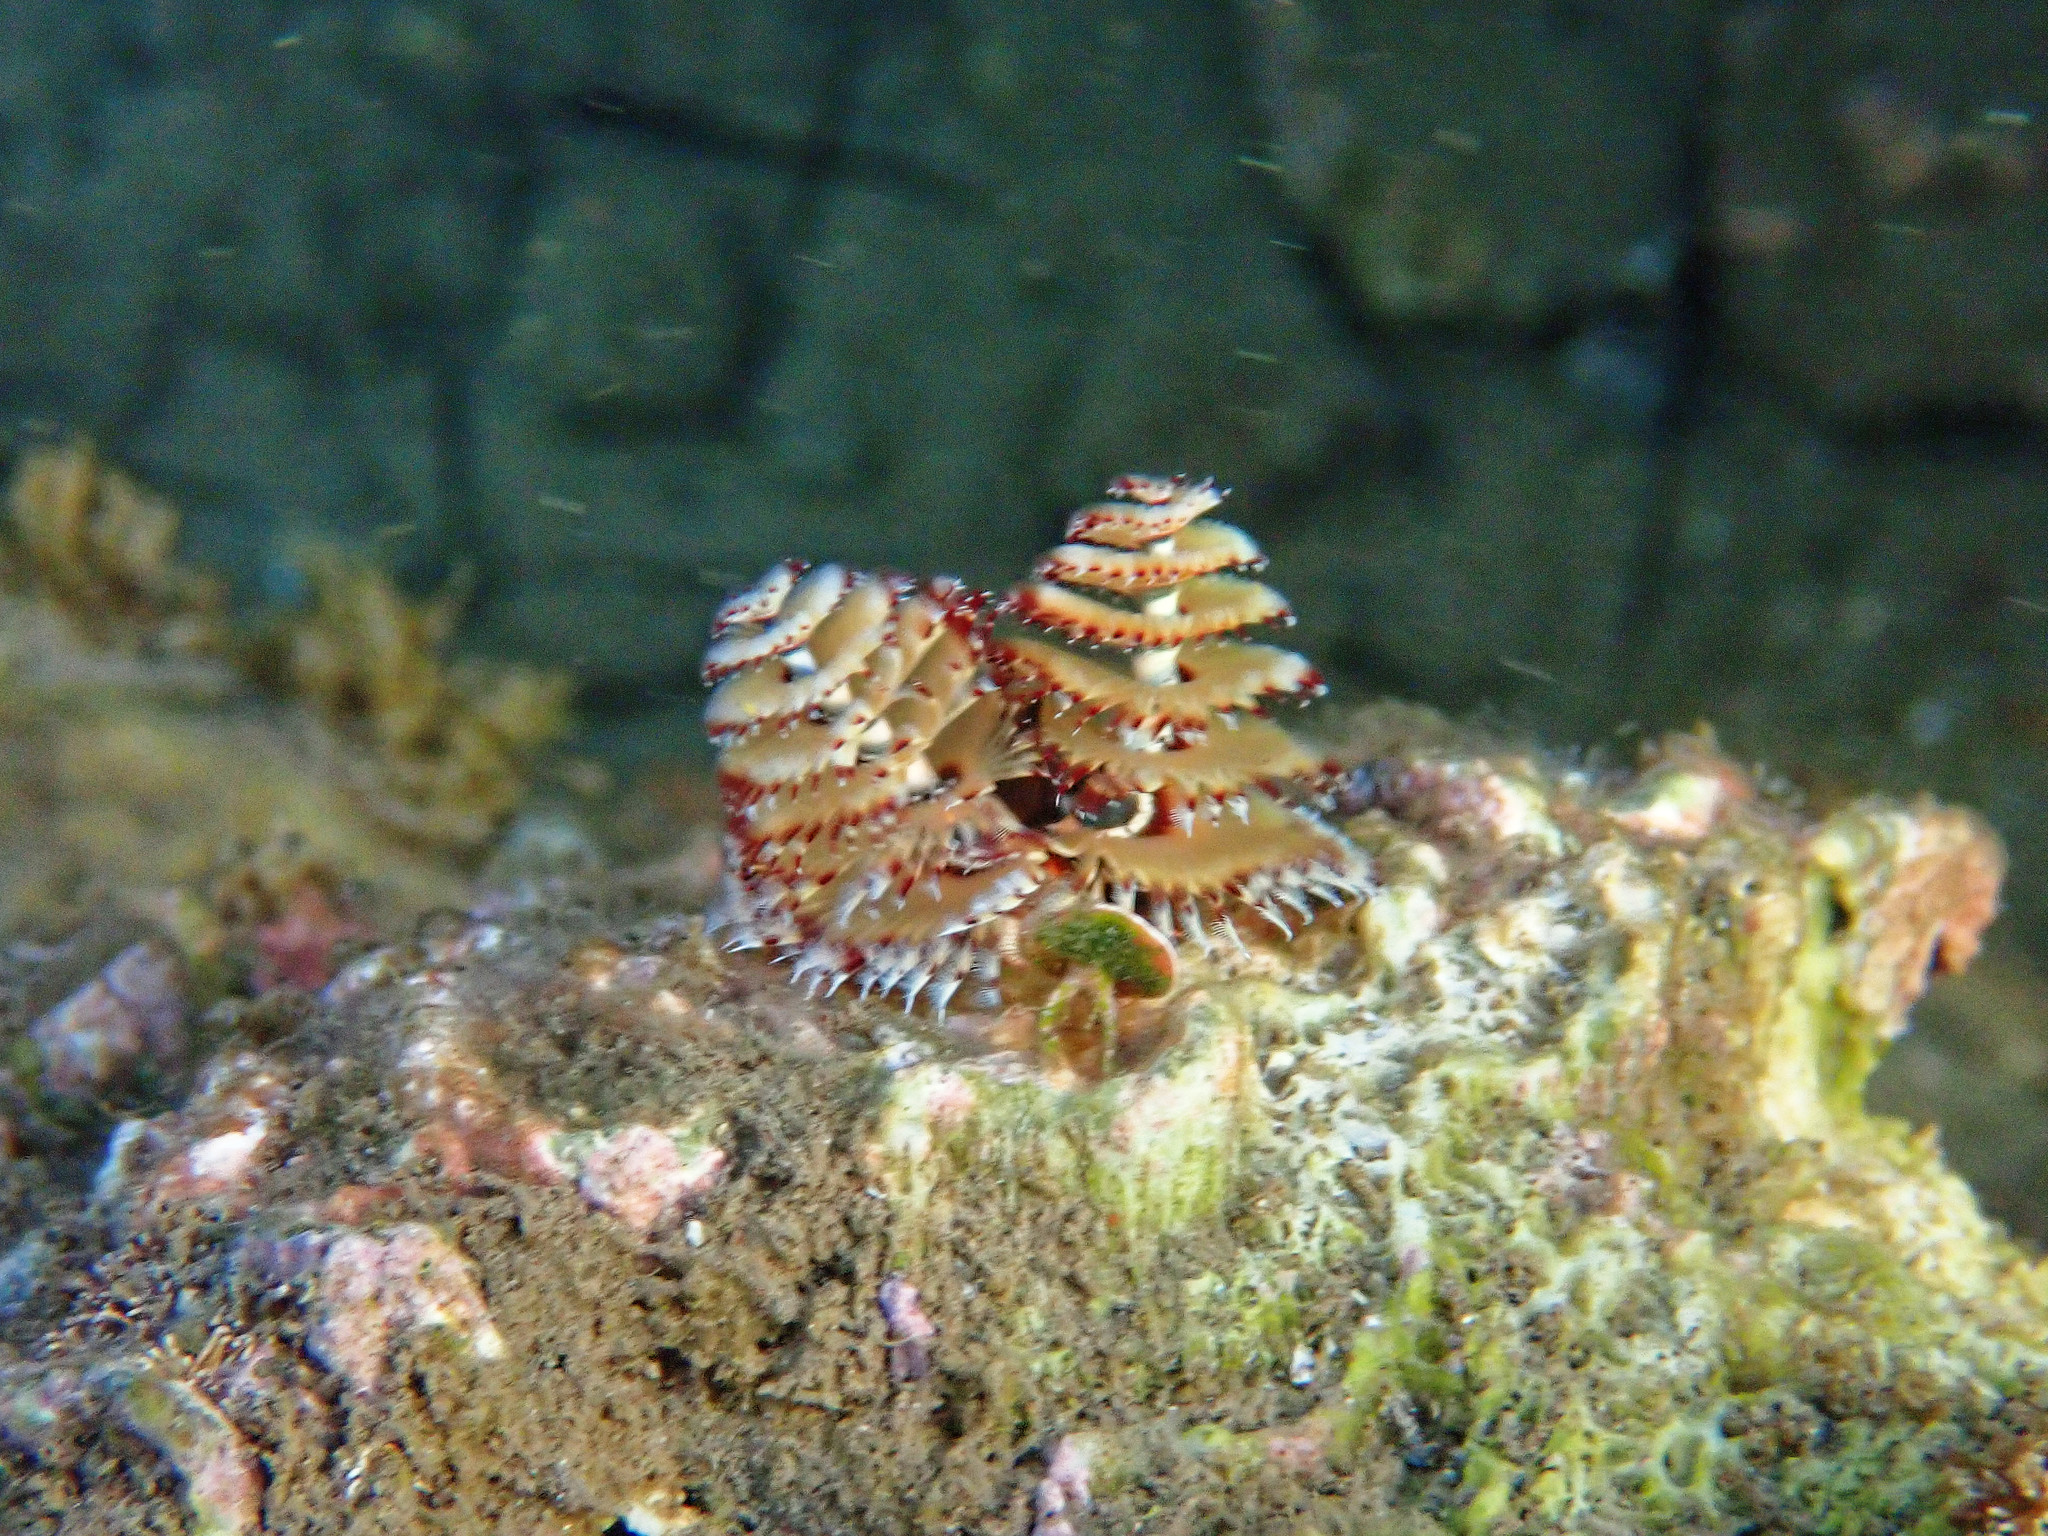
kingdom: Animalia
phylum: Annelida
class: Polychaeta
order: Sabellida
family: Serpulidae
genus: Spirobranchus
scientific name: Spirobranchus giganteus
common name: Christmas tree worm
